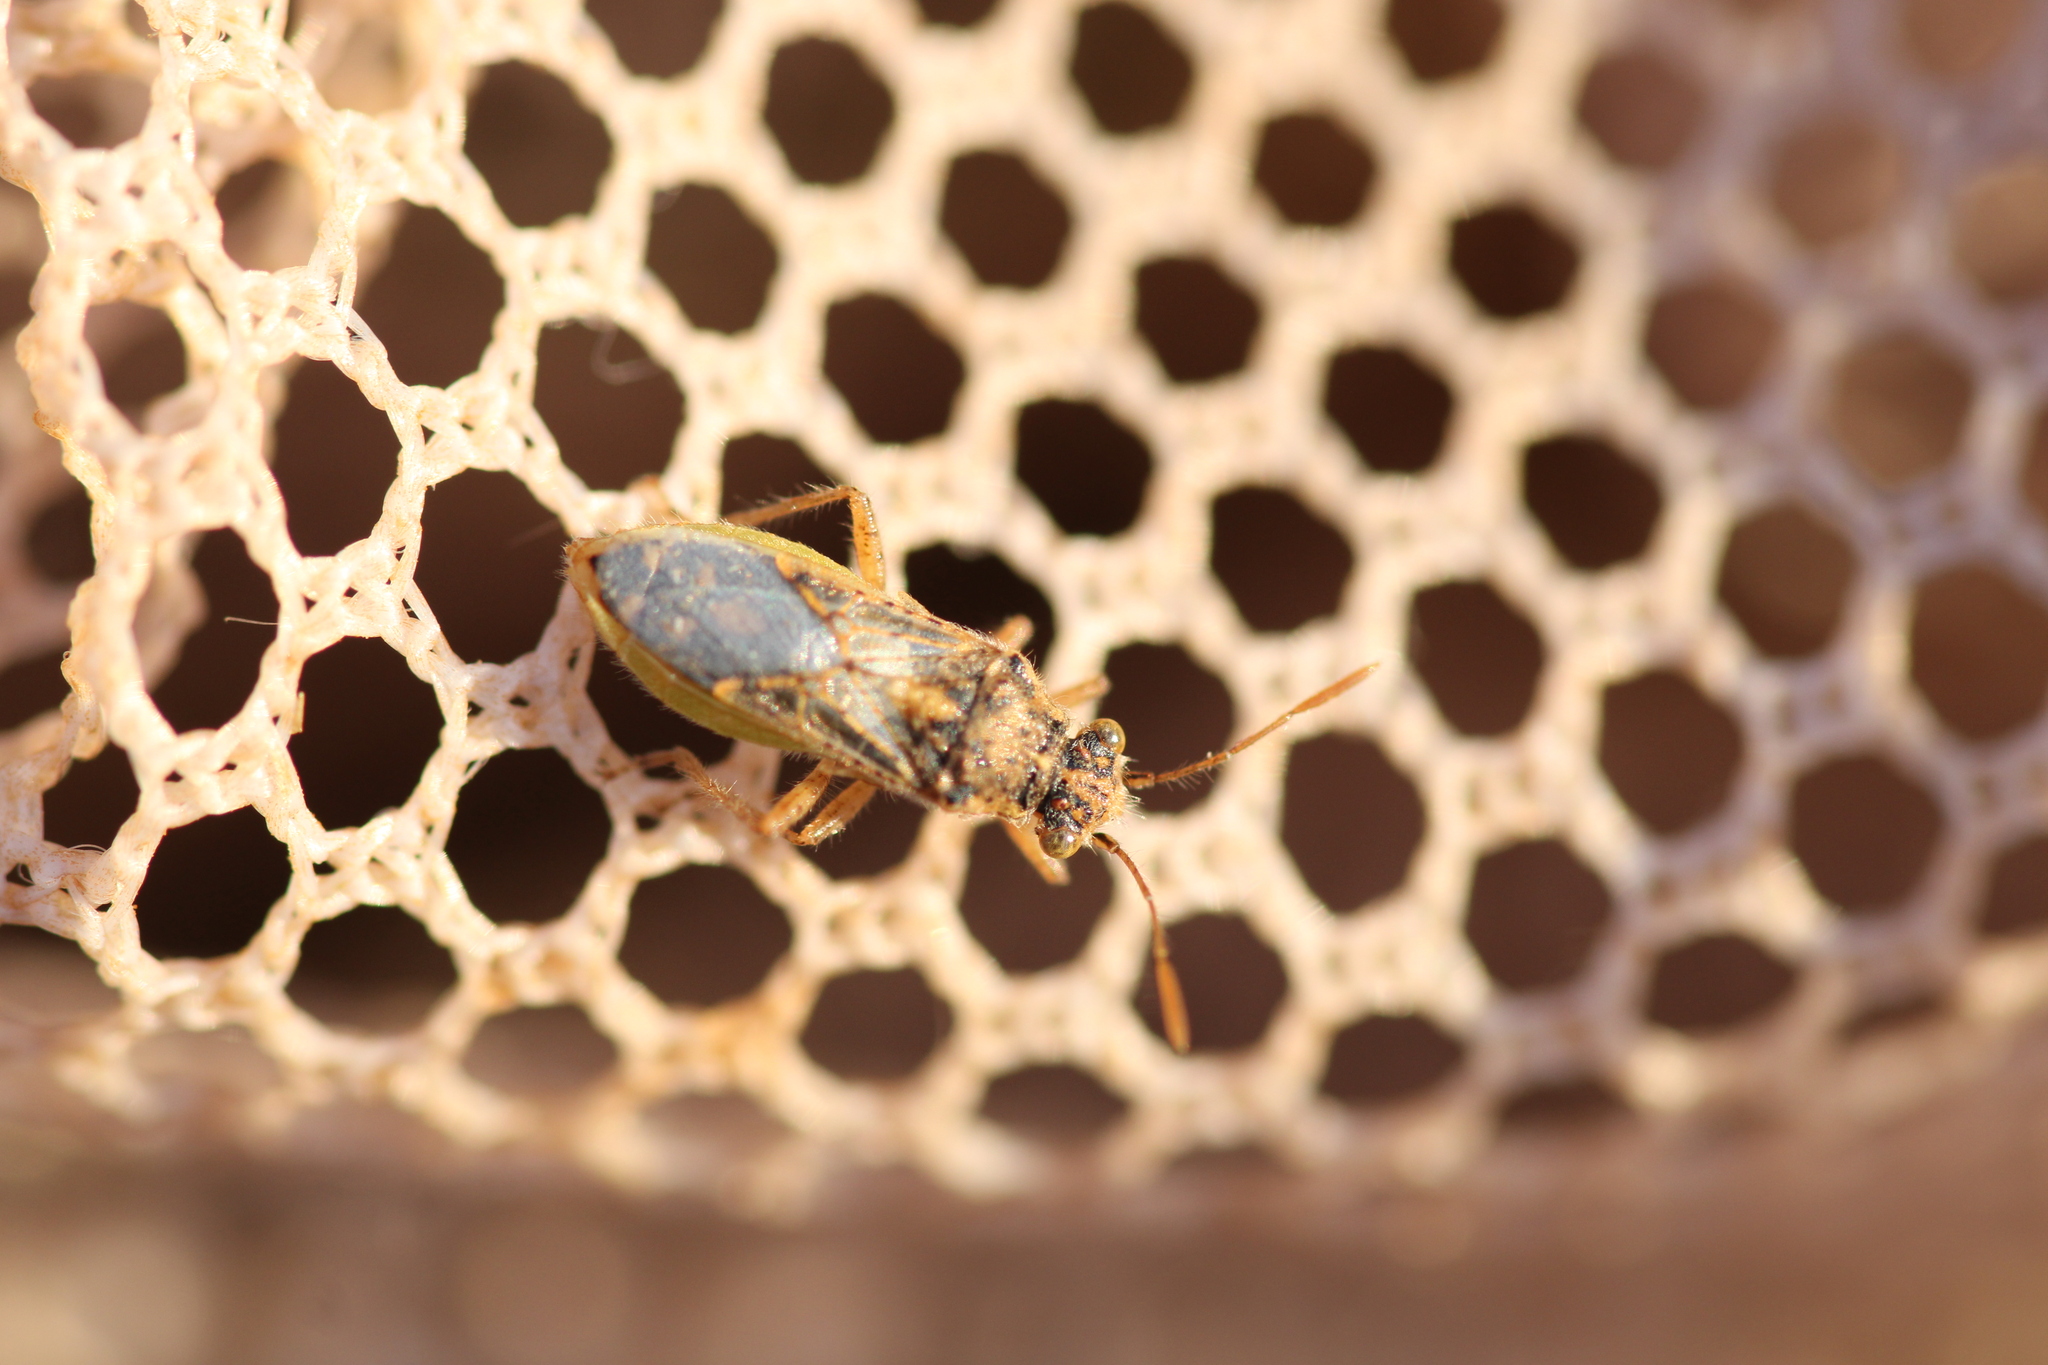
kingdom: Animalia
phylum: Arthropoda
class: Insecta
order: Hemiptera
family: Rhopalidae
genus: Brachycarenus
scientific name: Brachycarenus tigrinus
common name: Scentless plant bug
